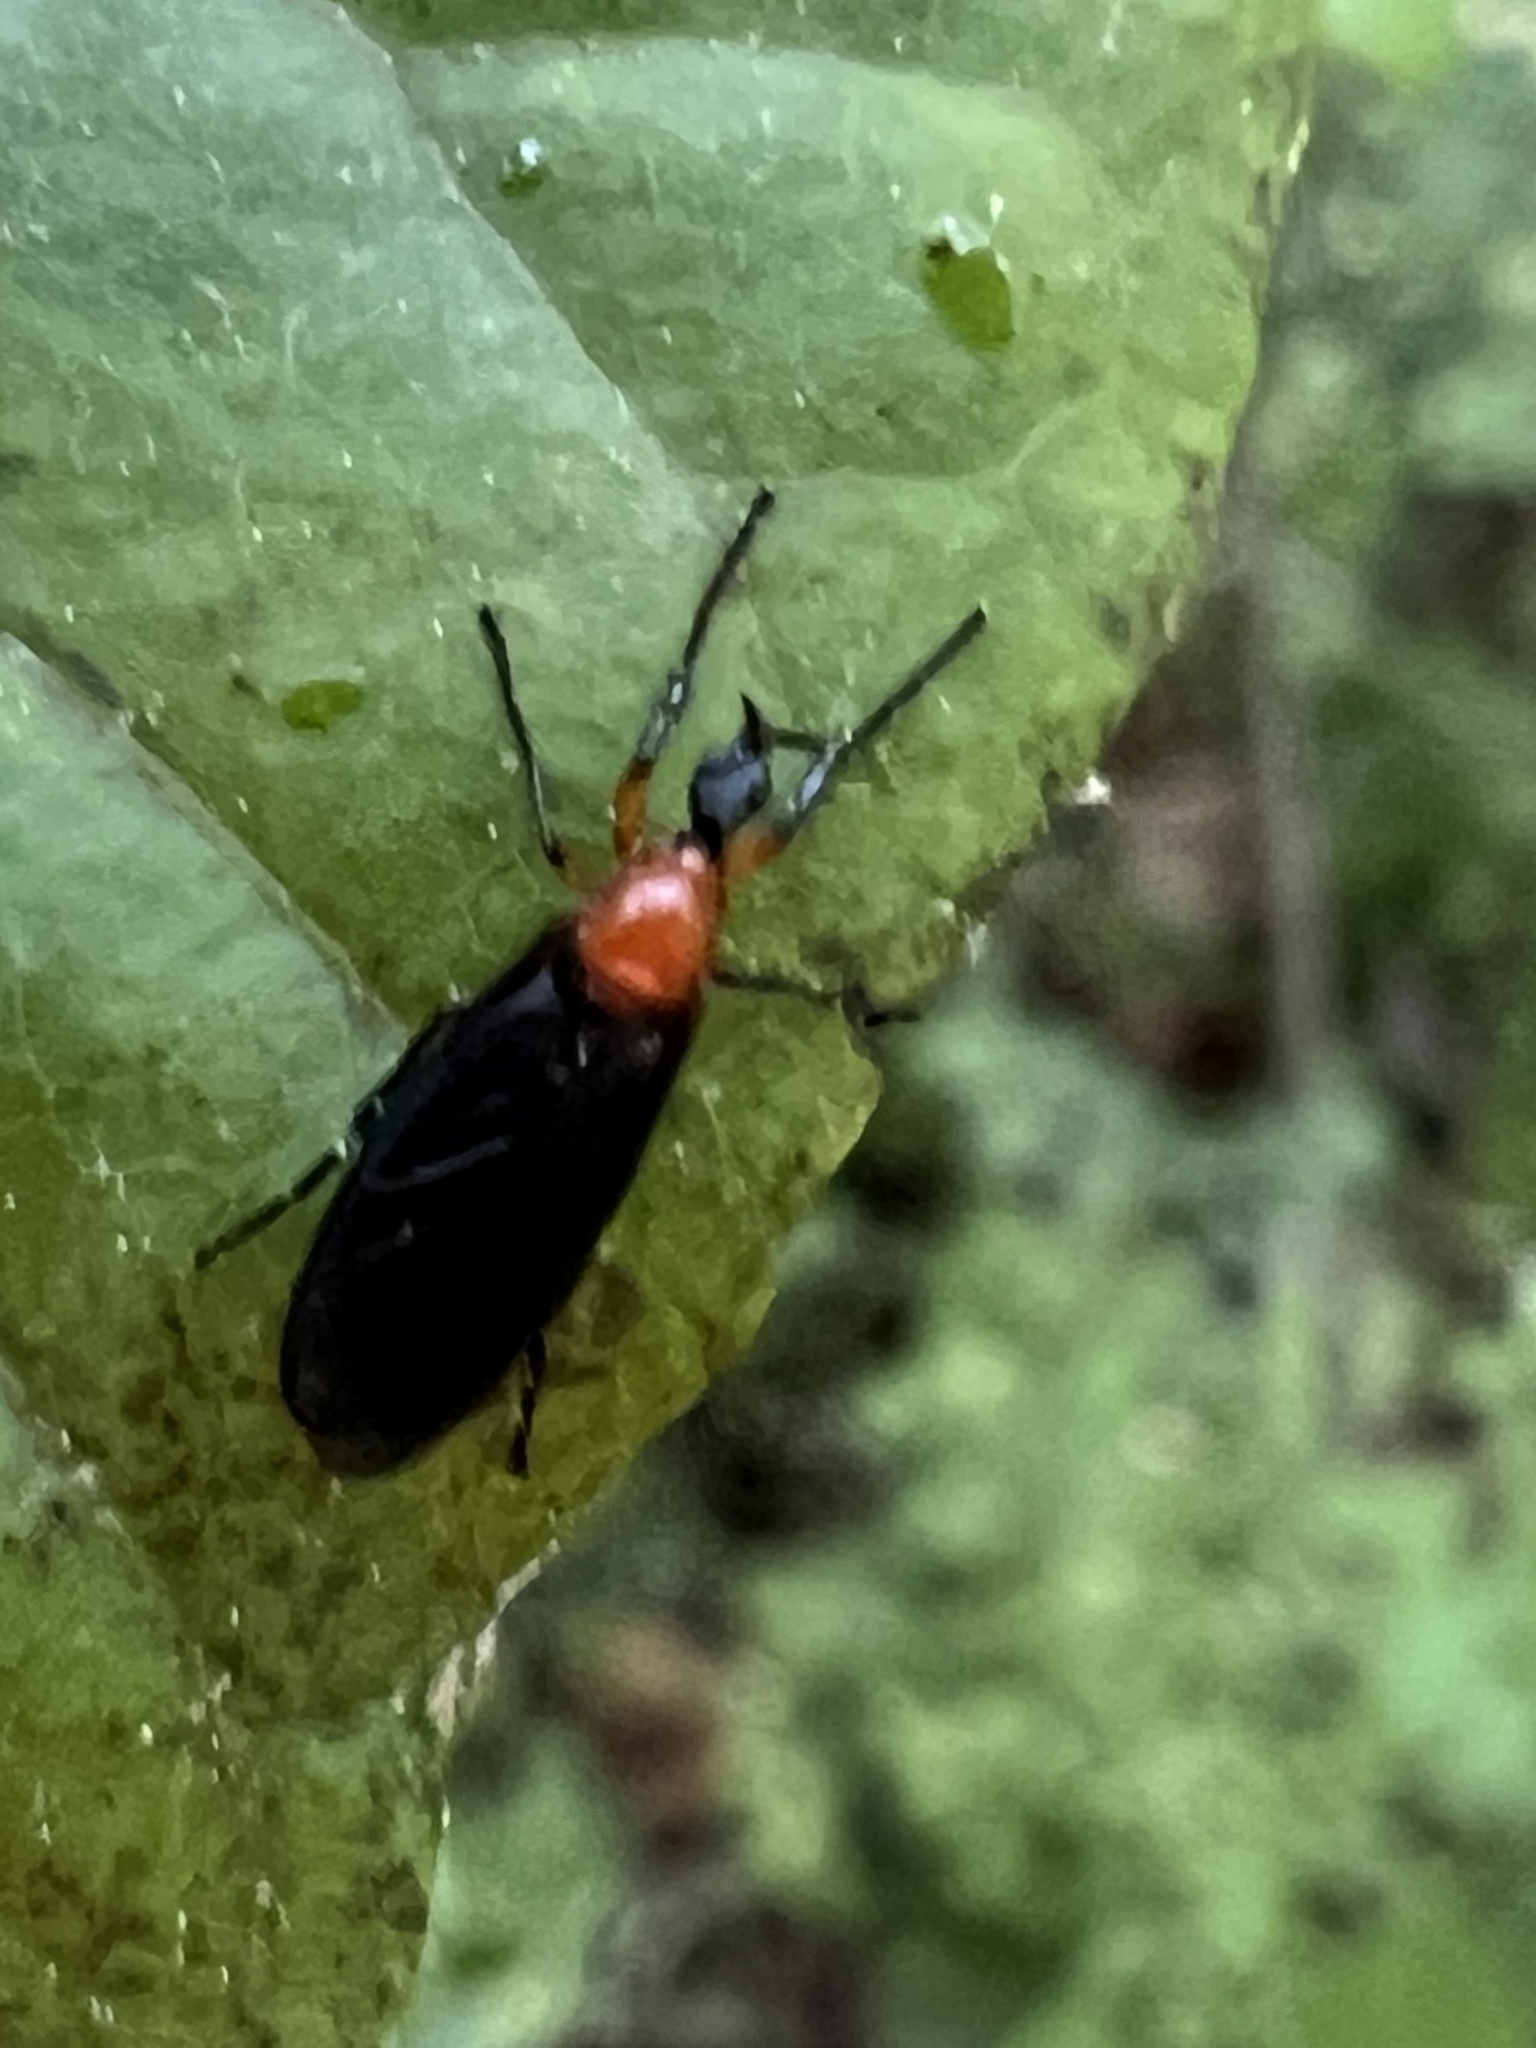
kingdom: Animalia
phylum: Arthropoda
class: Insecta
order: Diptera
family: Bibionidae
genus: Dilophus
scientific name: Dilophus spinipes
